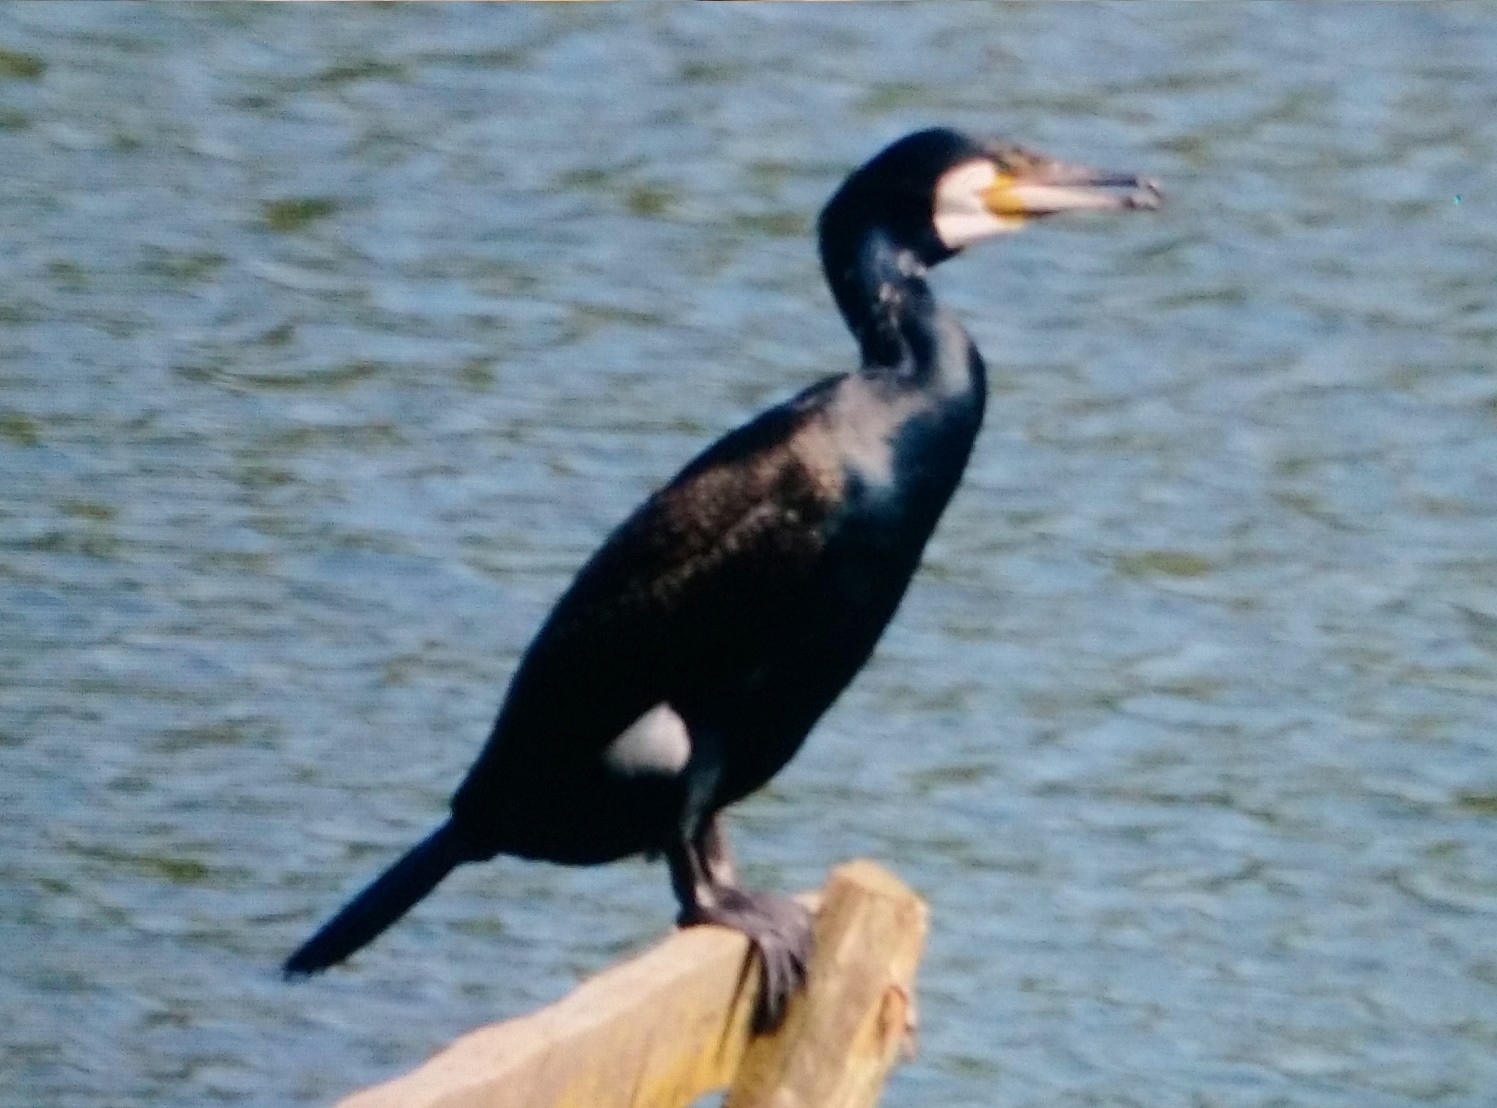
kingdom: Animalia
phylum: Chordata
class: Aves
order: Suliformes
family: Phalacrocoracidae
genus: Phalacrocorax
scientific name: Phalacrocorax carbo
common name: Great cormorant
